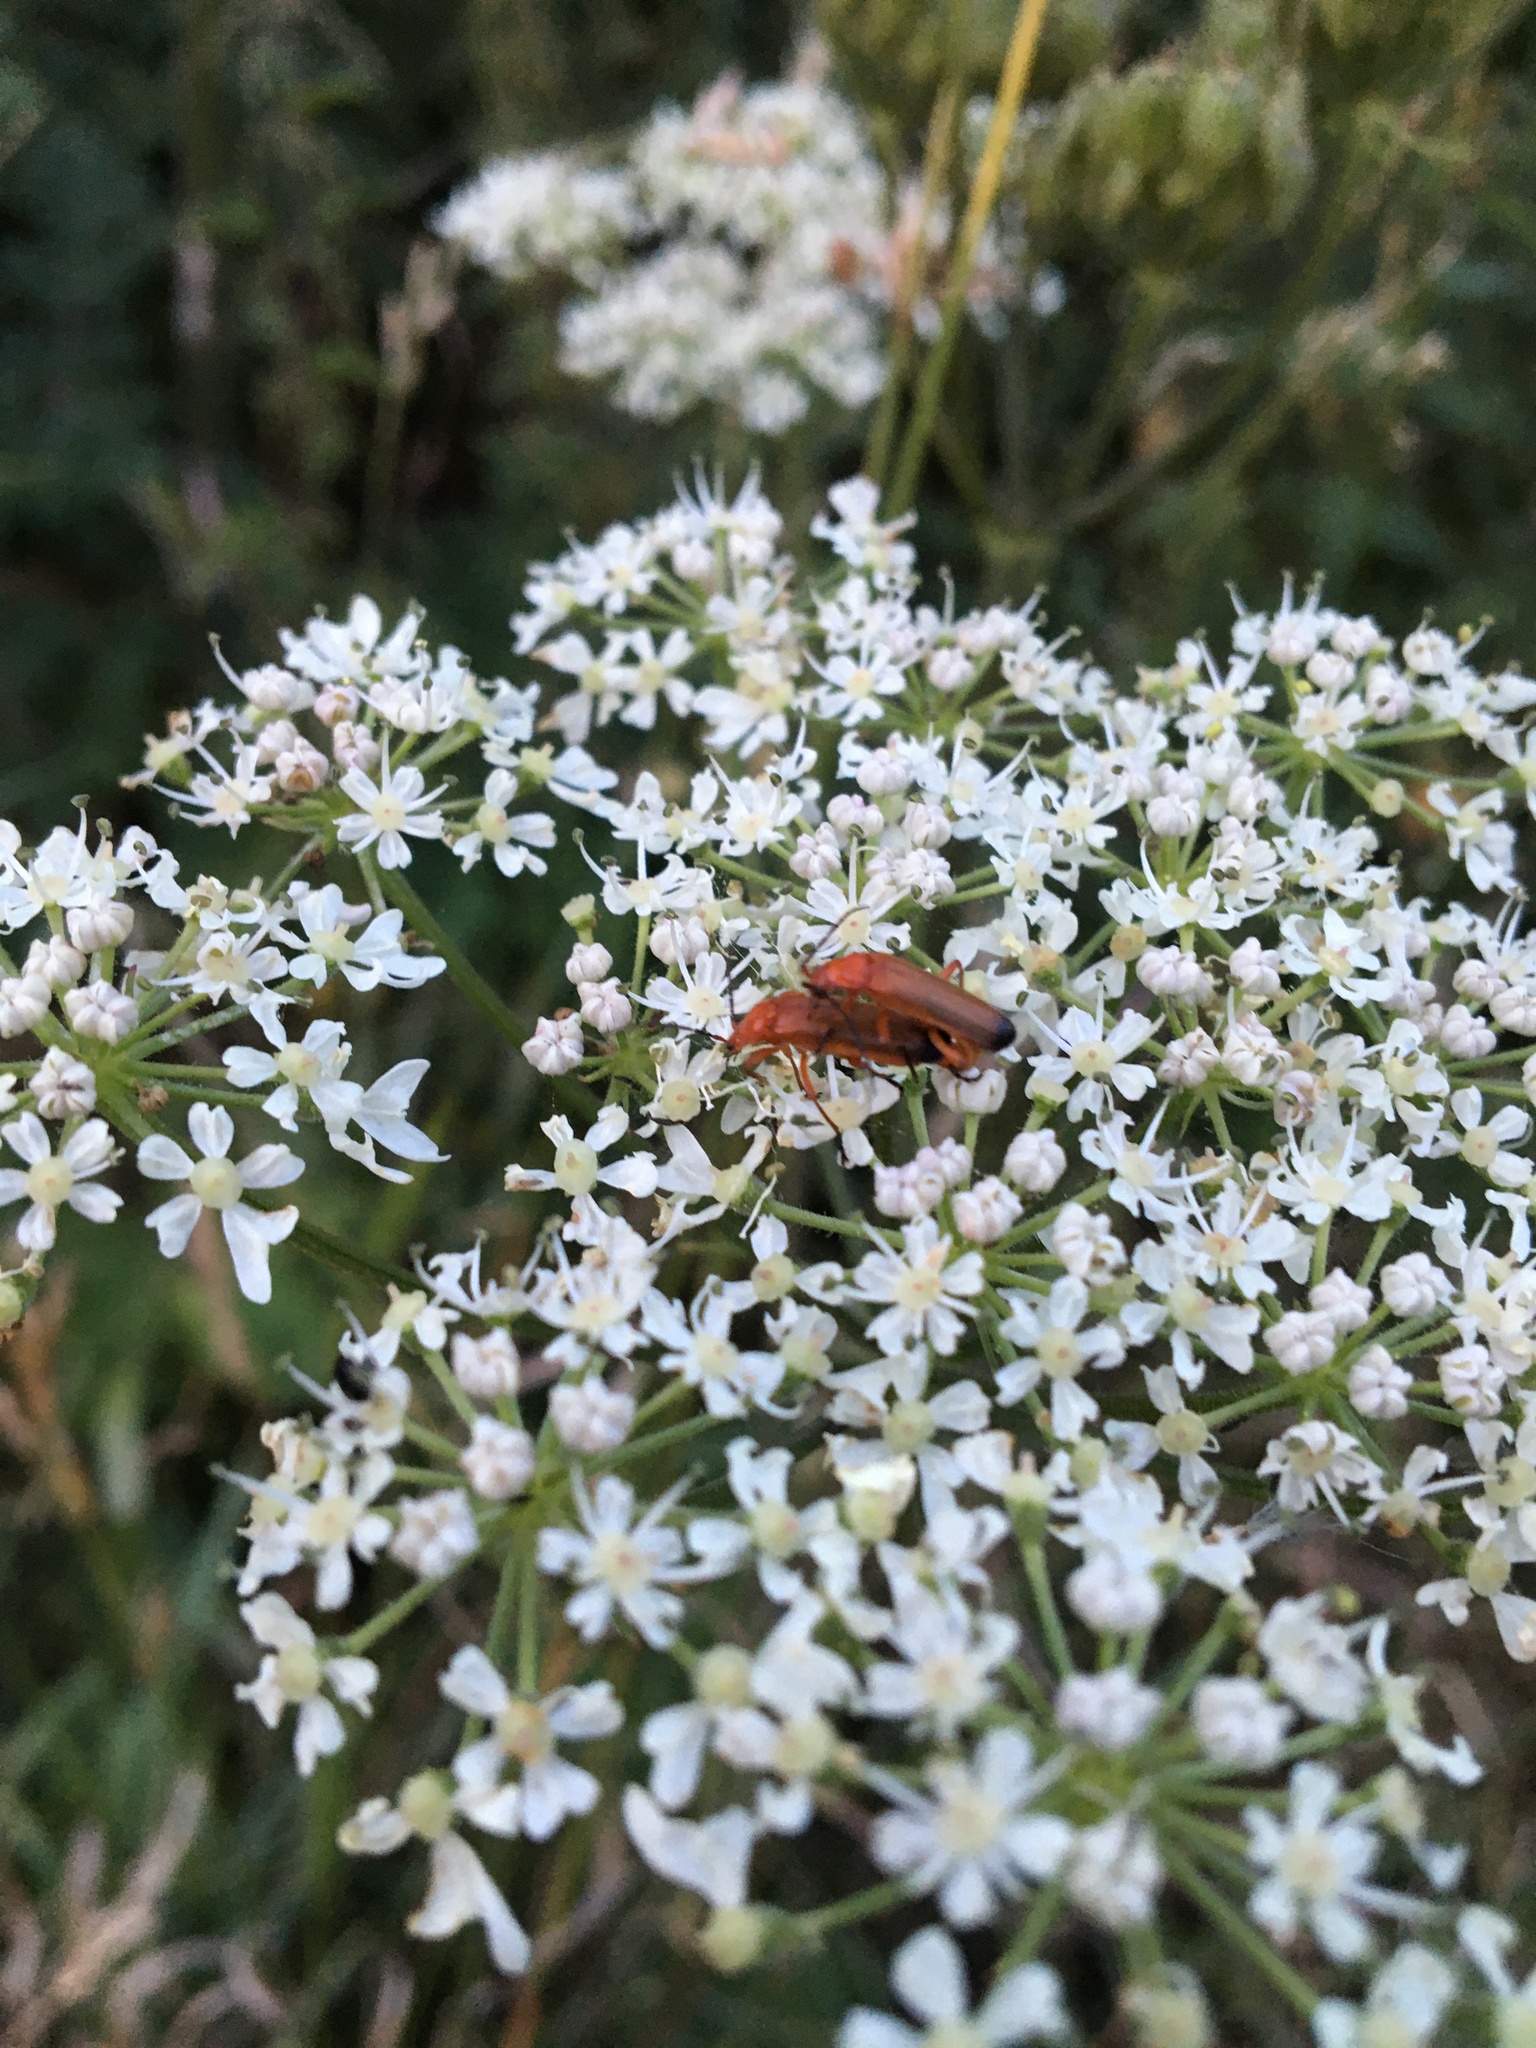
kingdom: Animalia
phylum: Arthropoda
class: Insecta
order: Coleoptera
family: Cantharidae
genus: Rhagonycha
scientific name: Rhagonycha fulva
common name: Common red soldier beetle
